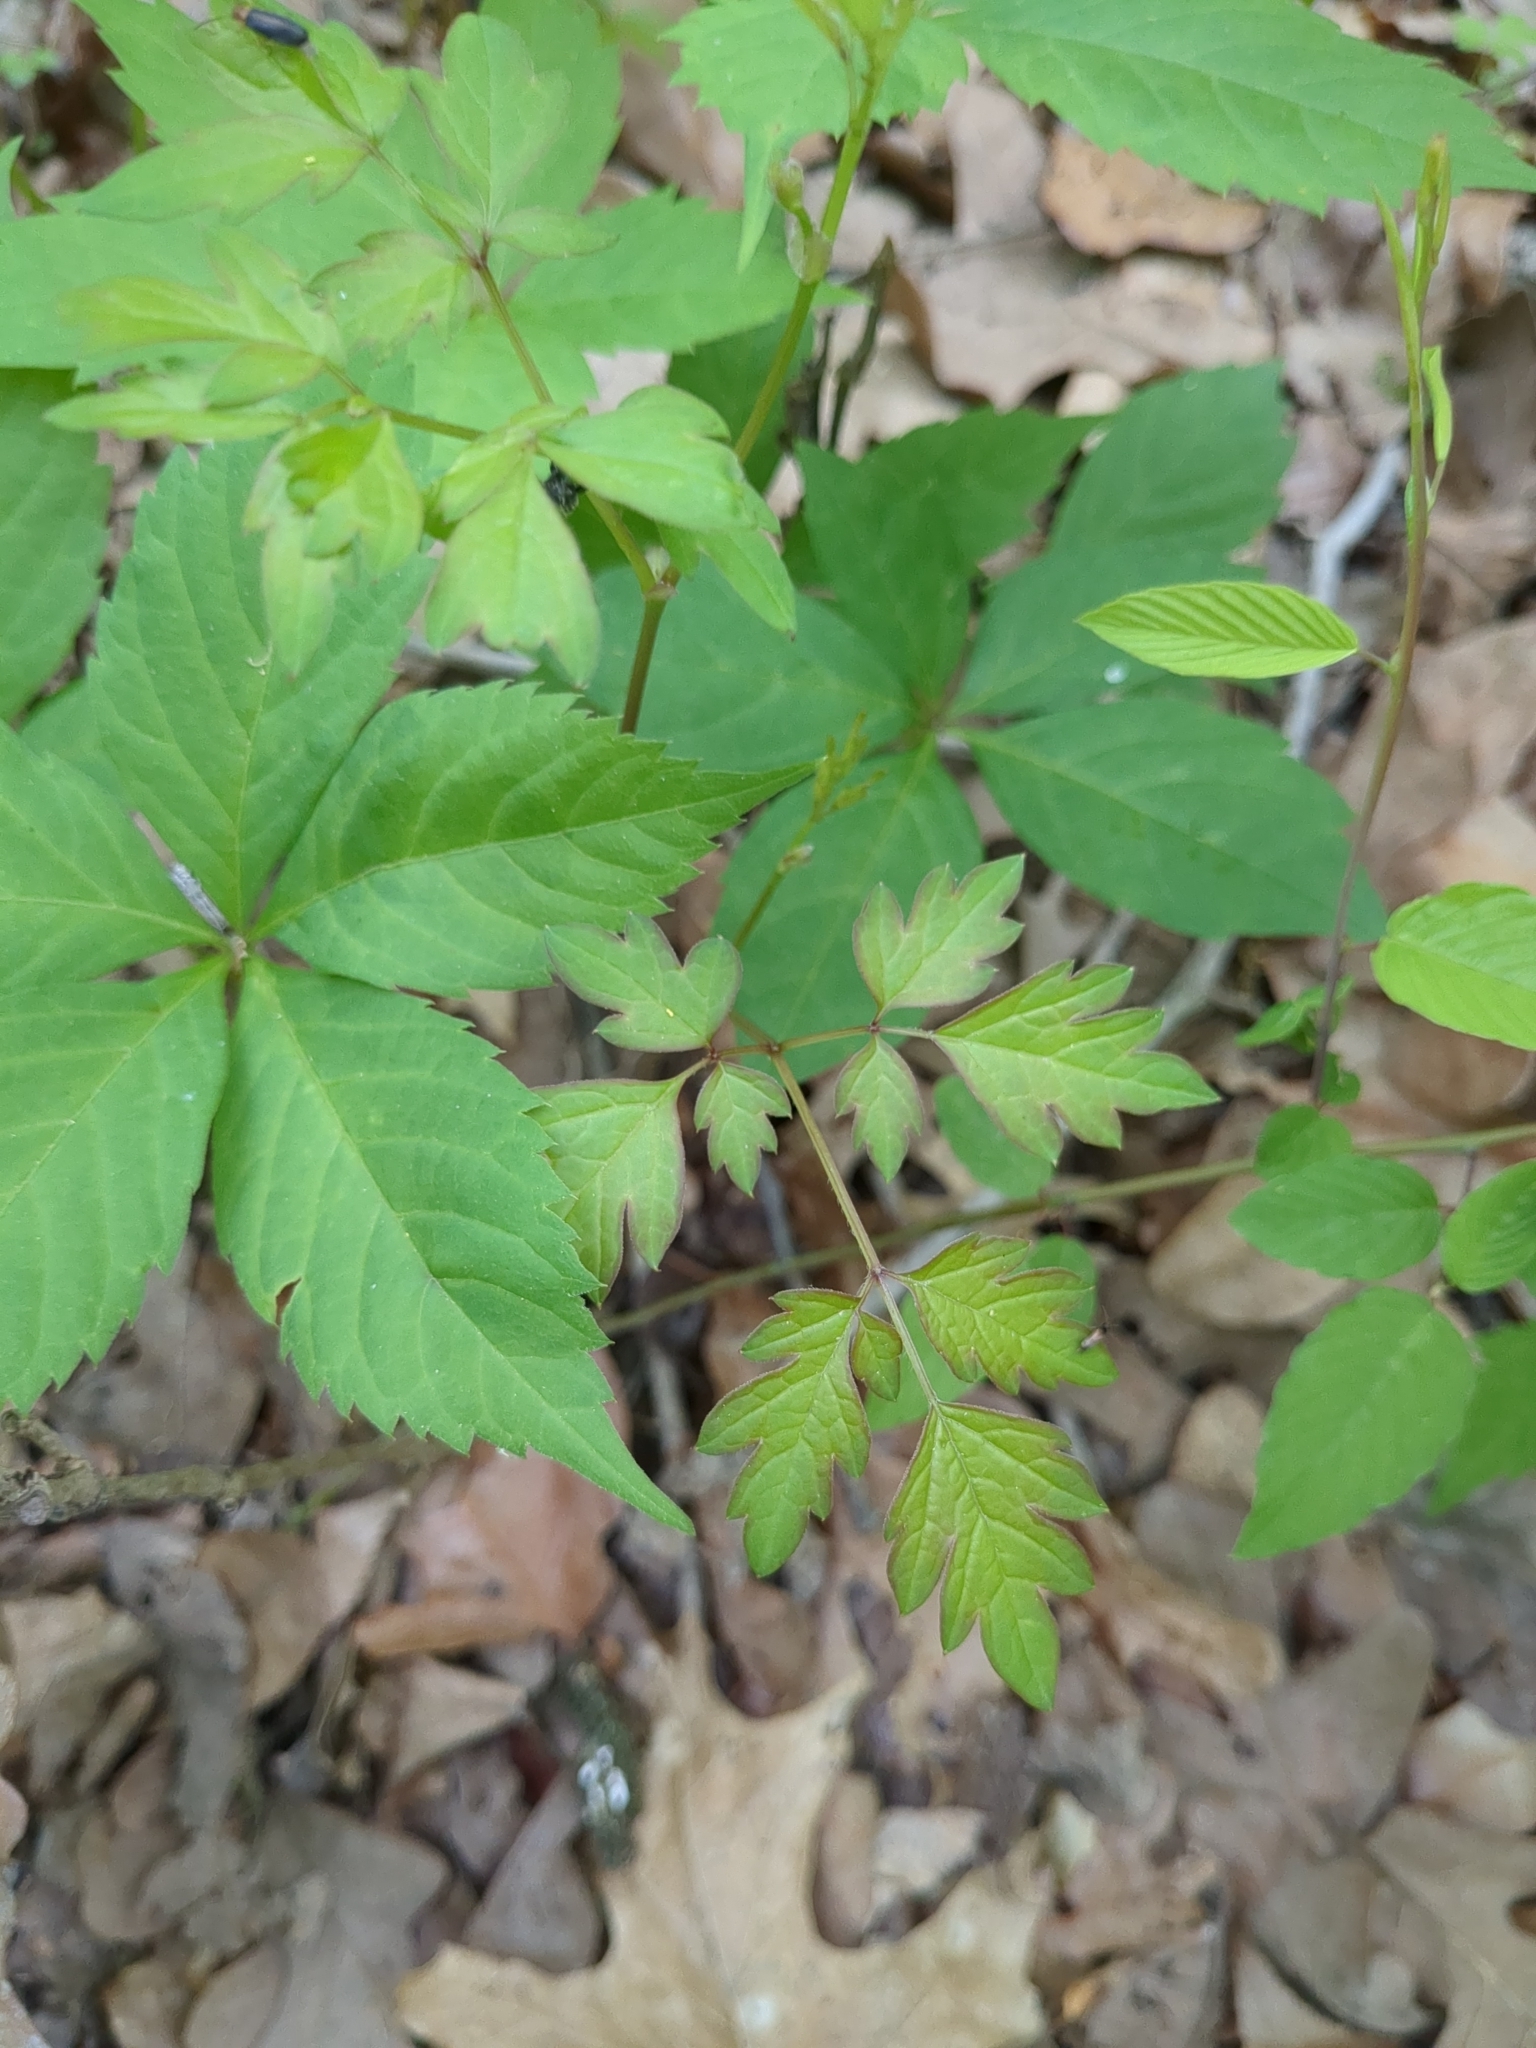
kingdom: Plantae
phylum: Tracheophyta
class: Magnoliopsida
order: Vitales
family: Vitaceae
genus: Nekemias
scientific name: Nekemias arborea
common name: Peppervine
